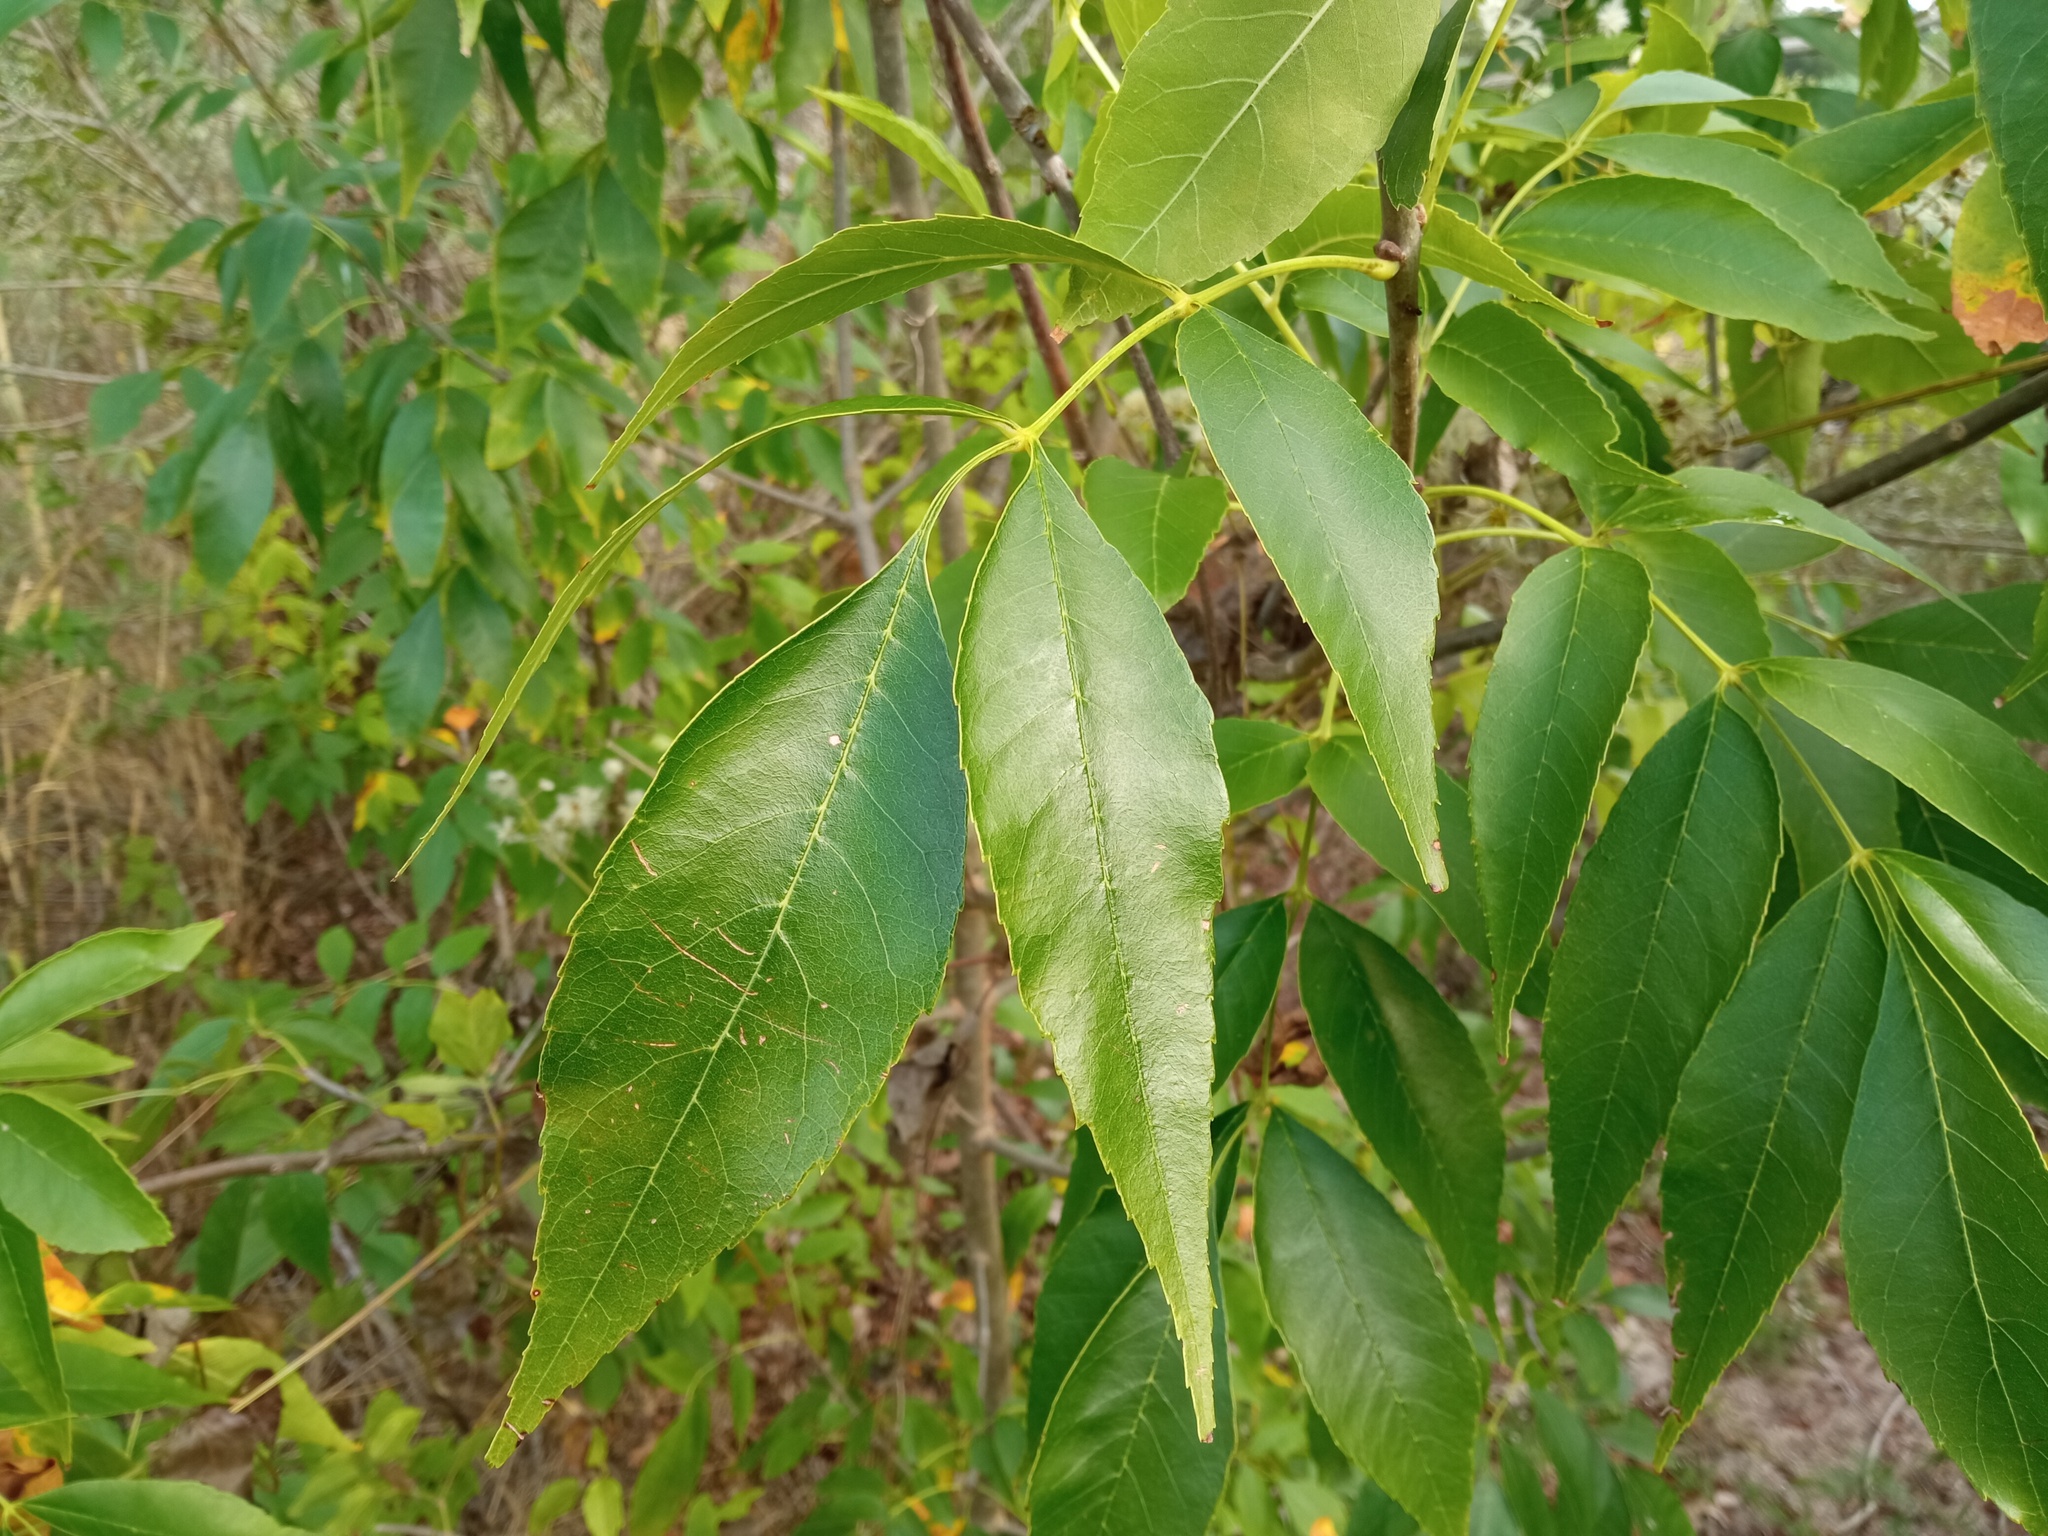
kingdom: Plantae
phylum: Tracheophyta
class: Magnoliopsida
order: Lamiales
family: Oleaceae
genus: Fraxinus
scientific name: Fraxinus pennsylvanica
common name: Green ash
